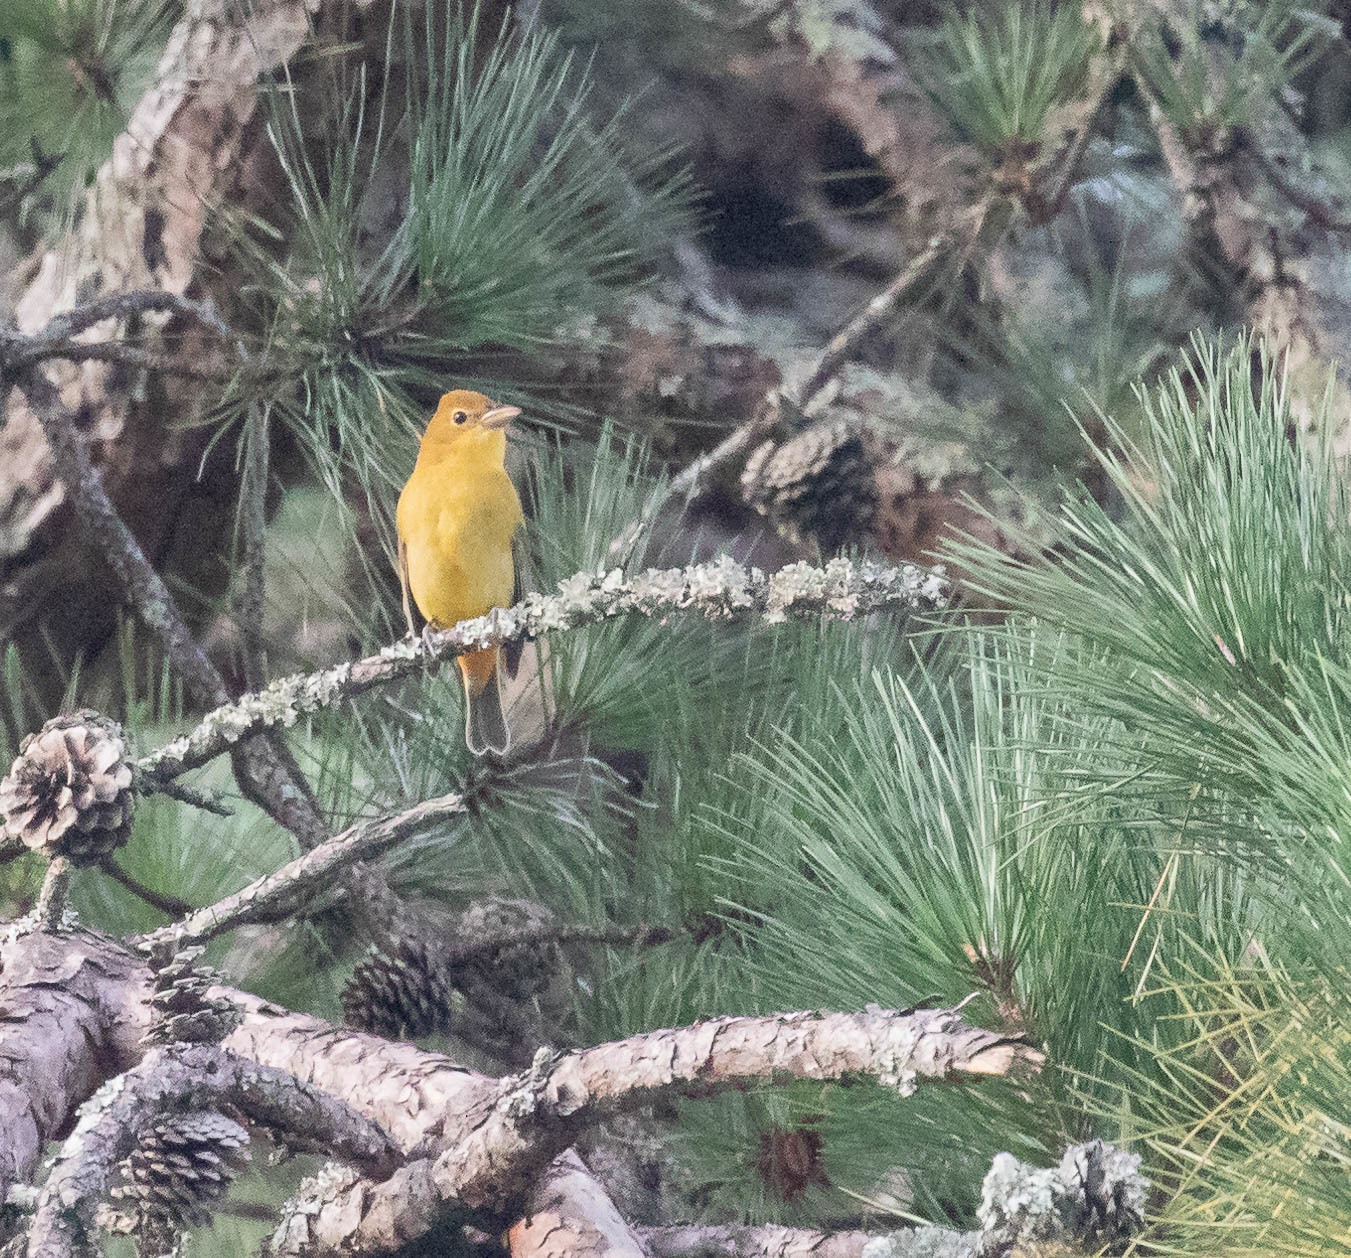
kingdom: Animalia
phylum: Chordata
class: Aves
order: Passeriformes
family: Cardinalidae
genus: Piranga
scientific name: Piranga rubra
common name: Summer tanager
